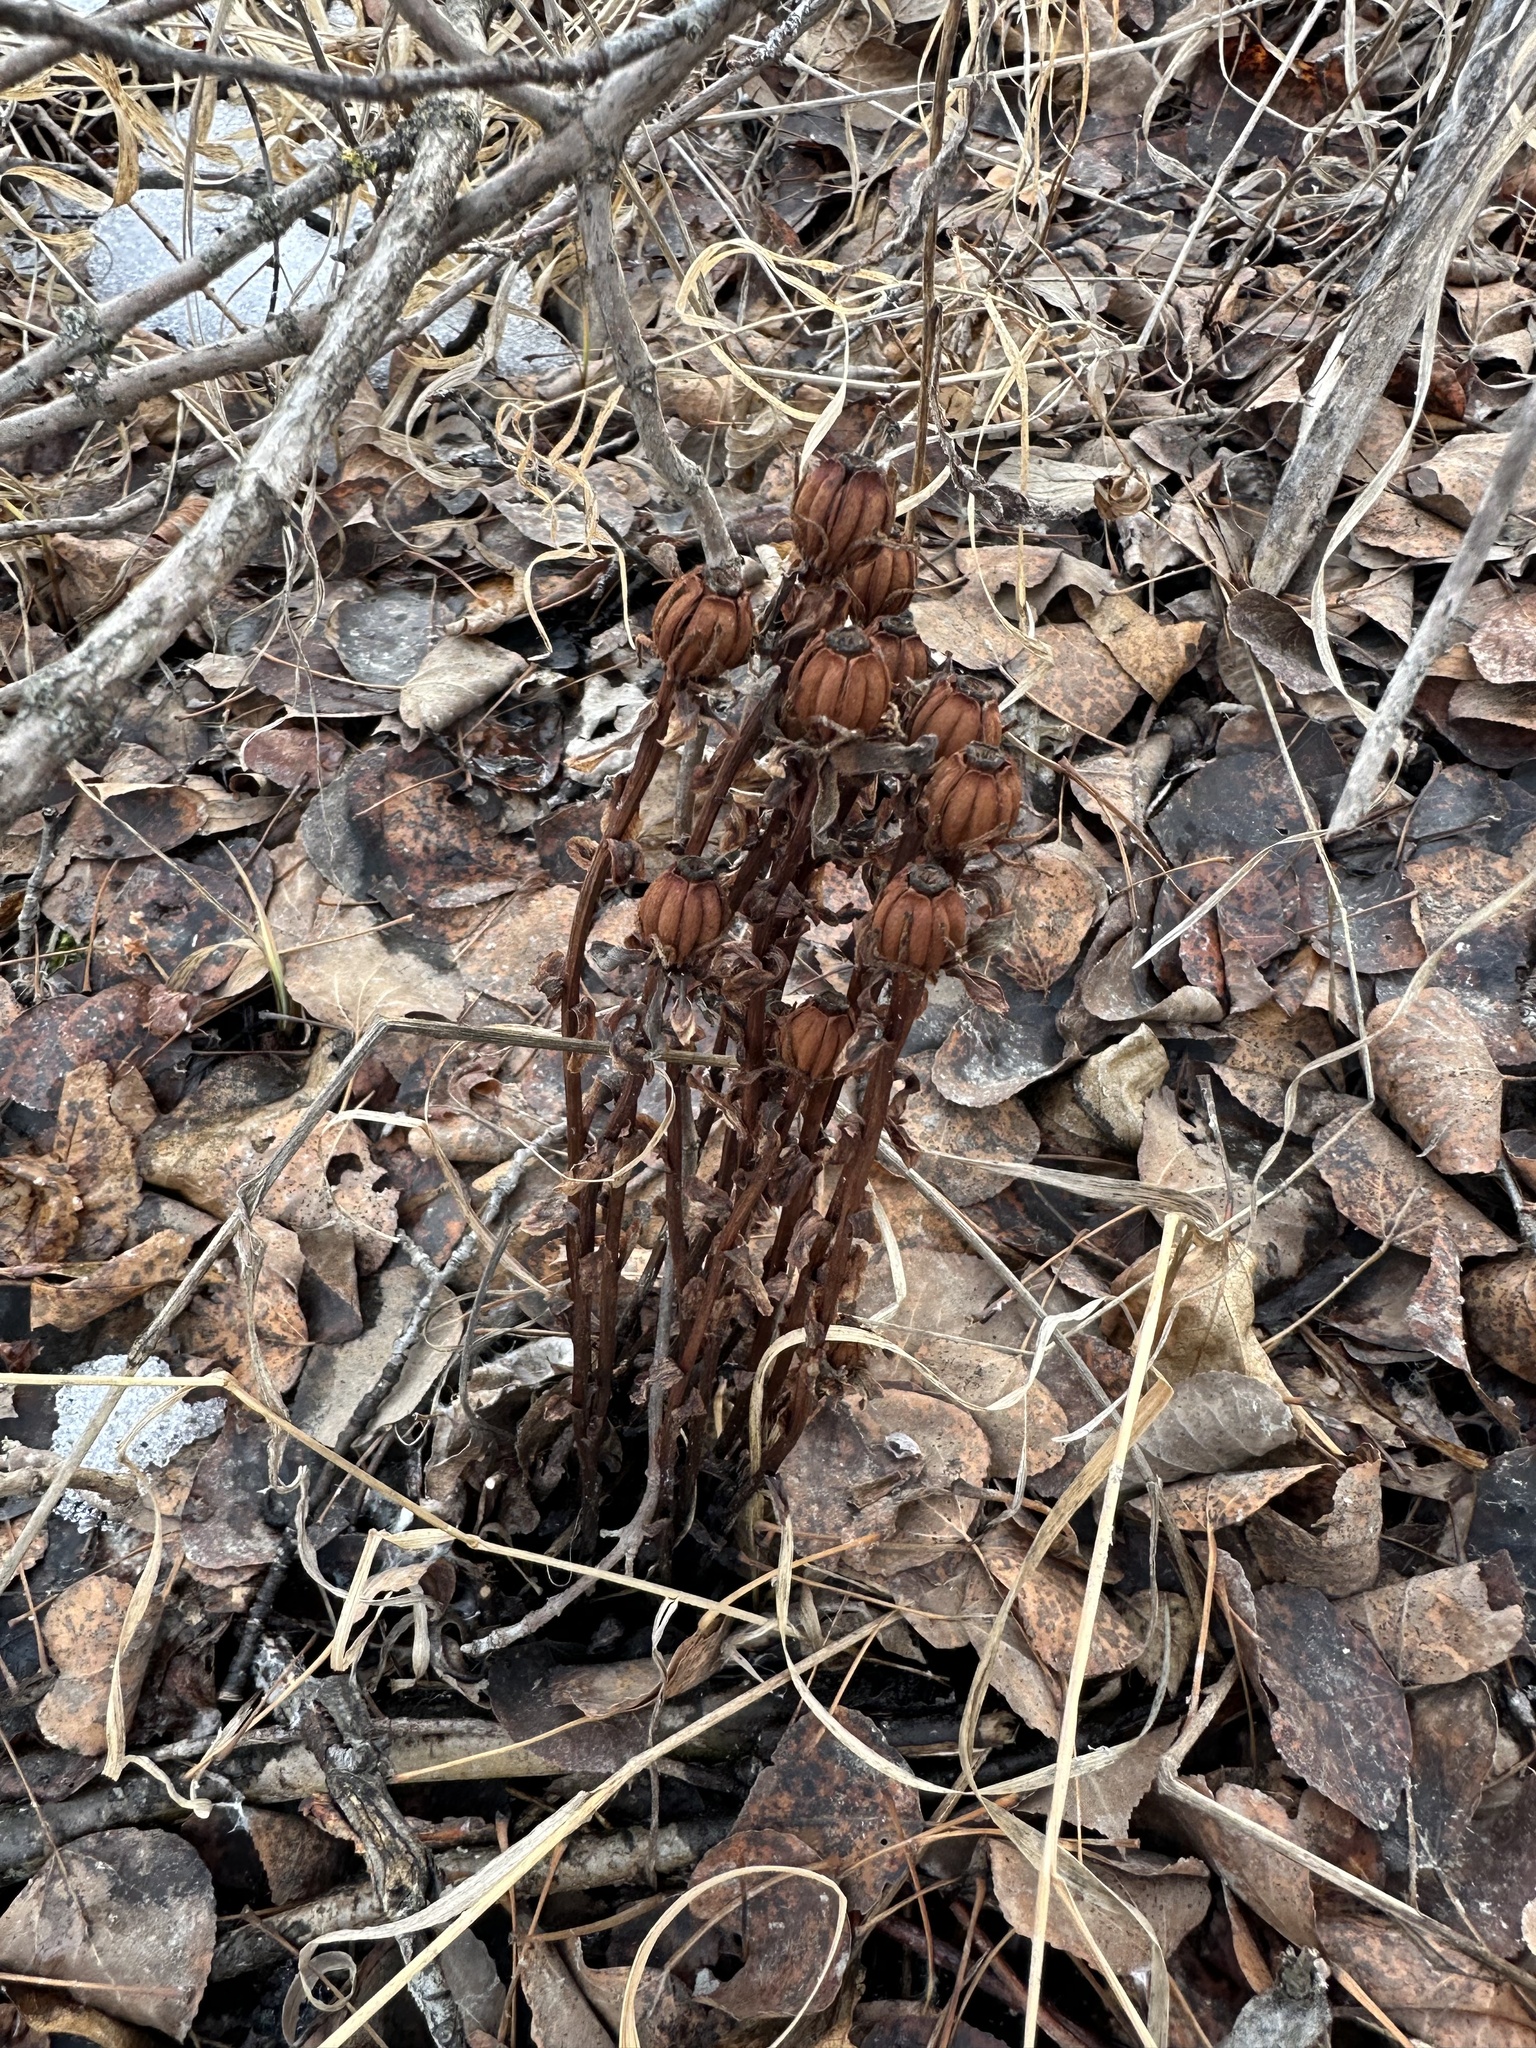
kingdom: Plantae
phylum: Tracheophyta
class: Magnoliopsida
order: Ericales
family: Ericaceae
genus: Monotropa
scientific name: Monotropa uniflora
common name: Convulsion root
